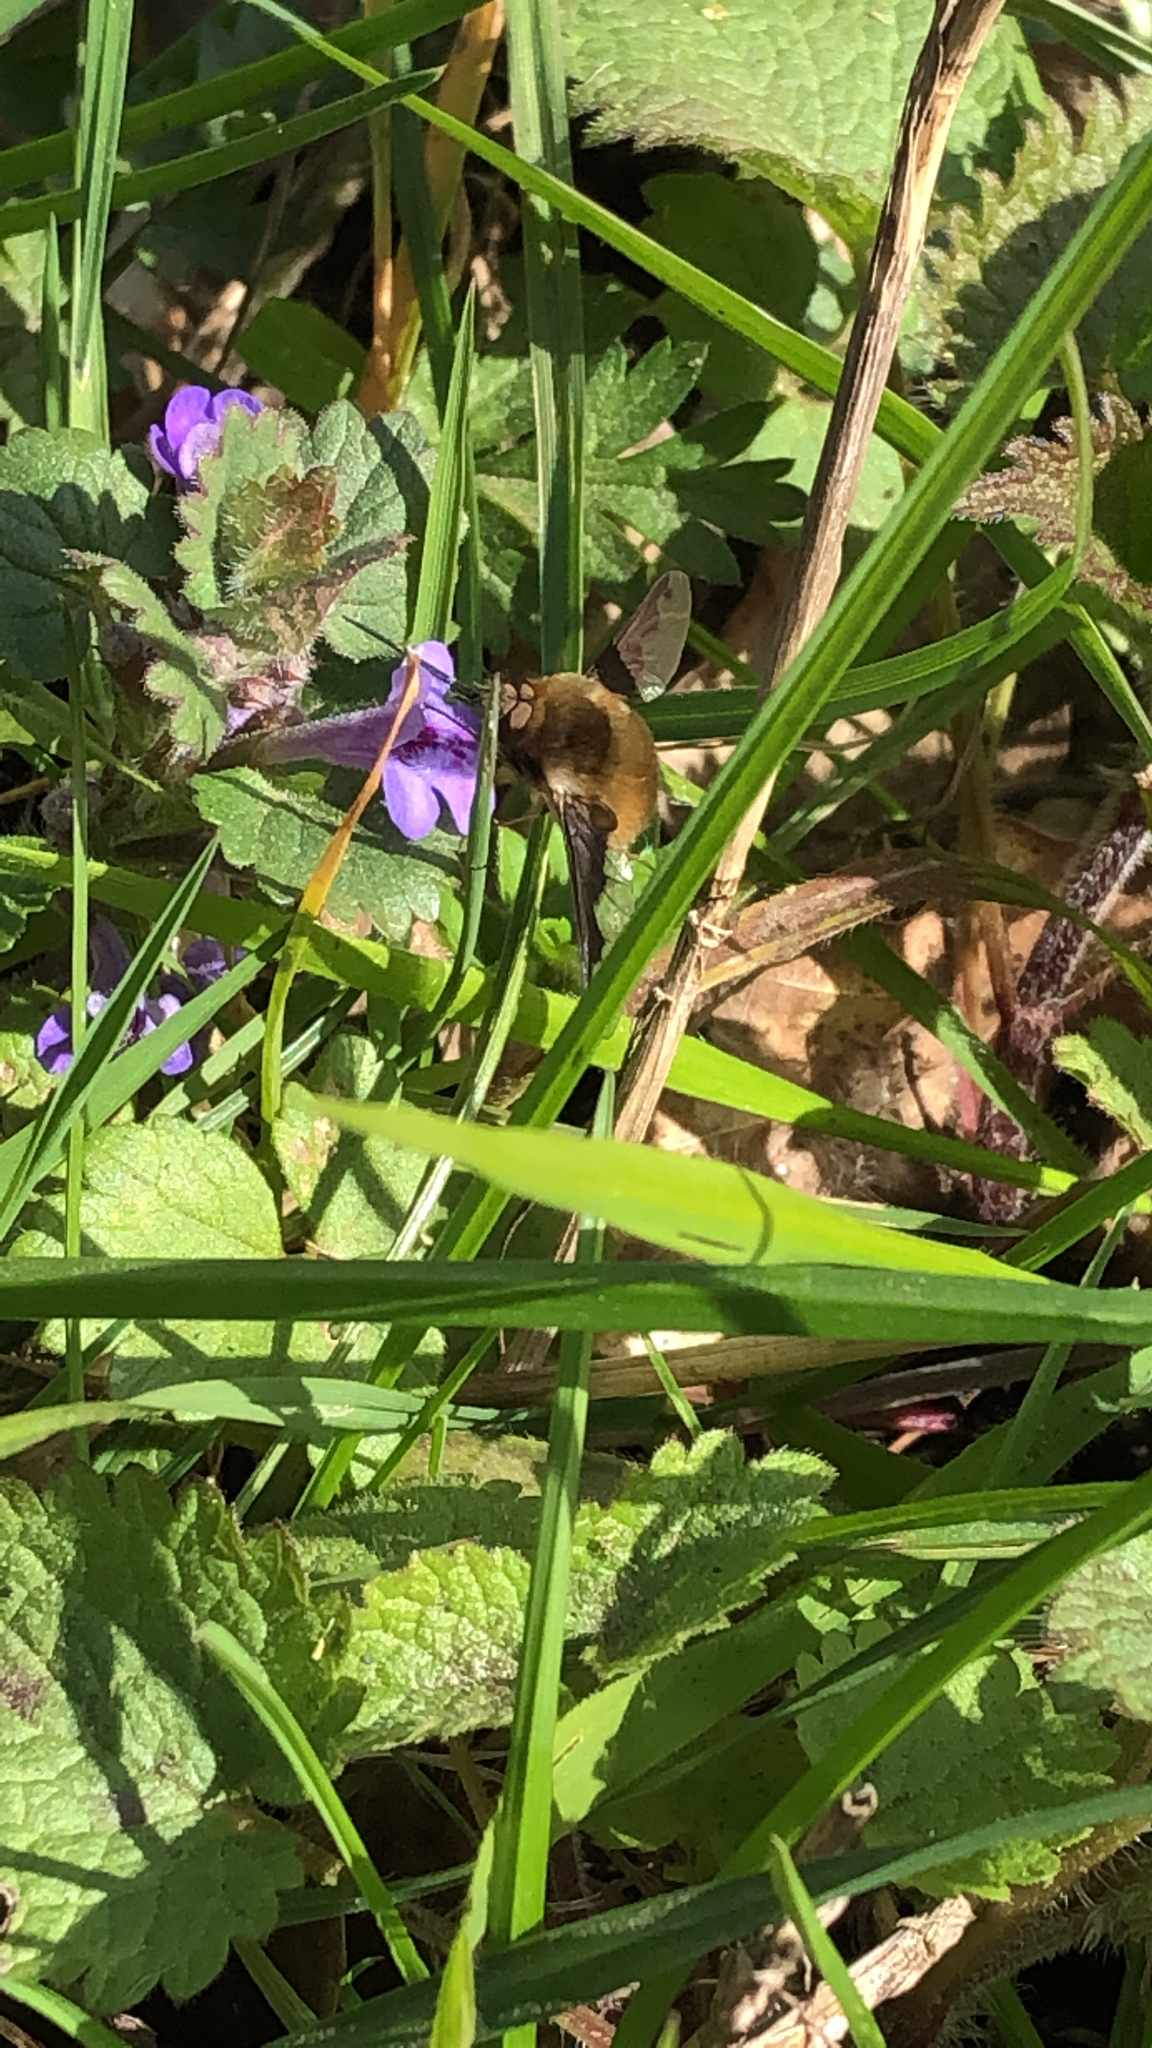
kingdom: Animalia
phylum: Arthropoda
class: Insecta
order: Diptera
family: Bombyliidae
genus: Bombylius
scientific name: Bombylius major
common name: Bee fly
